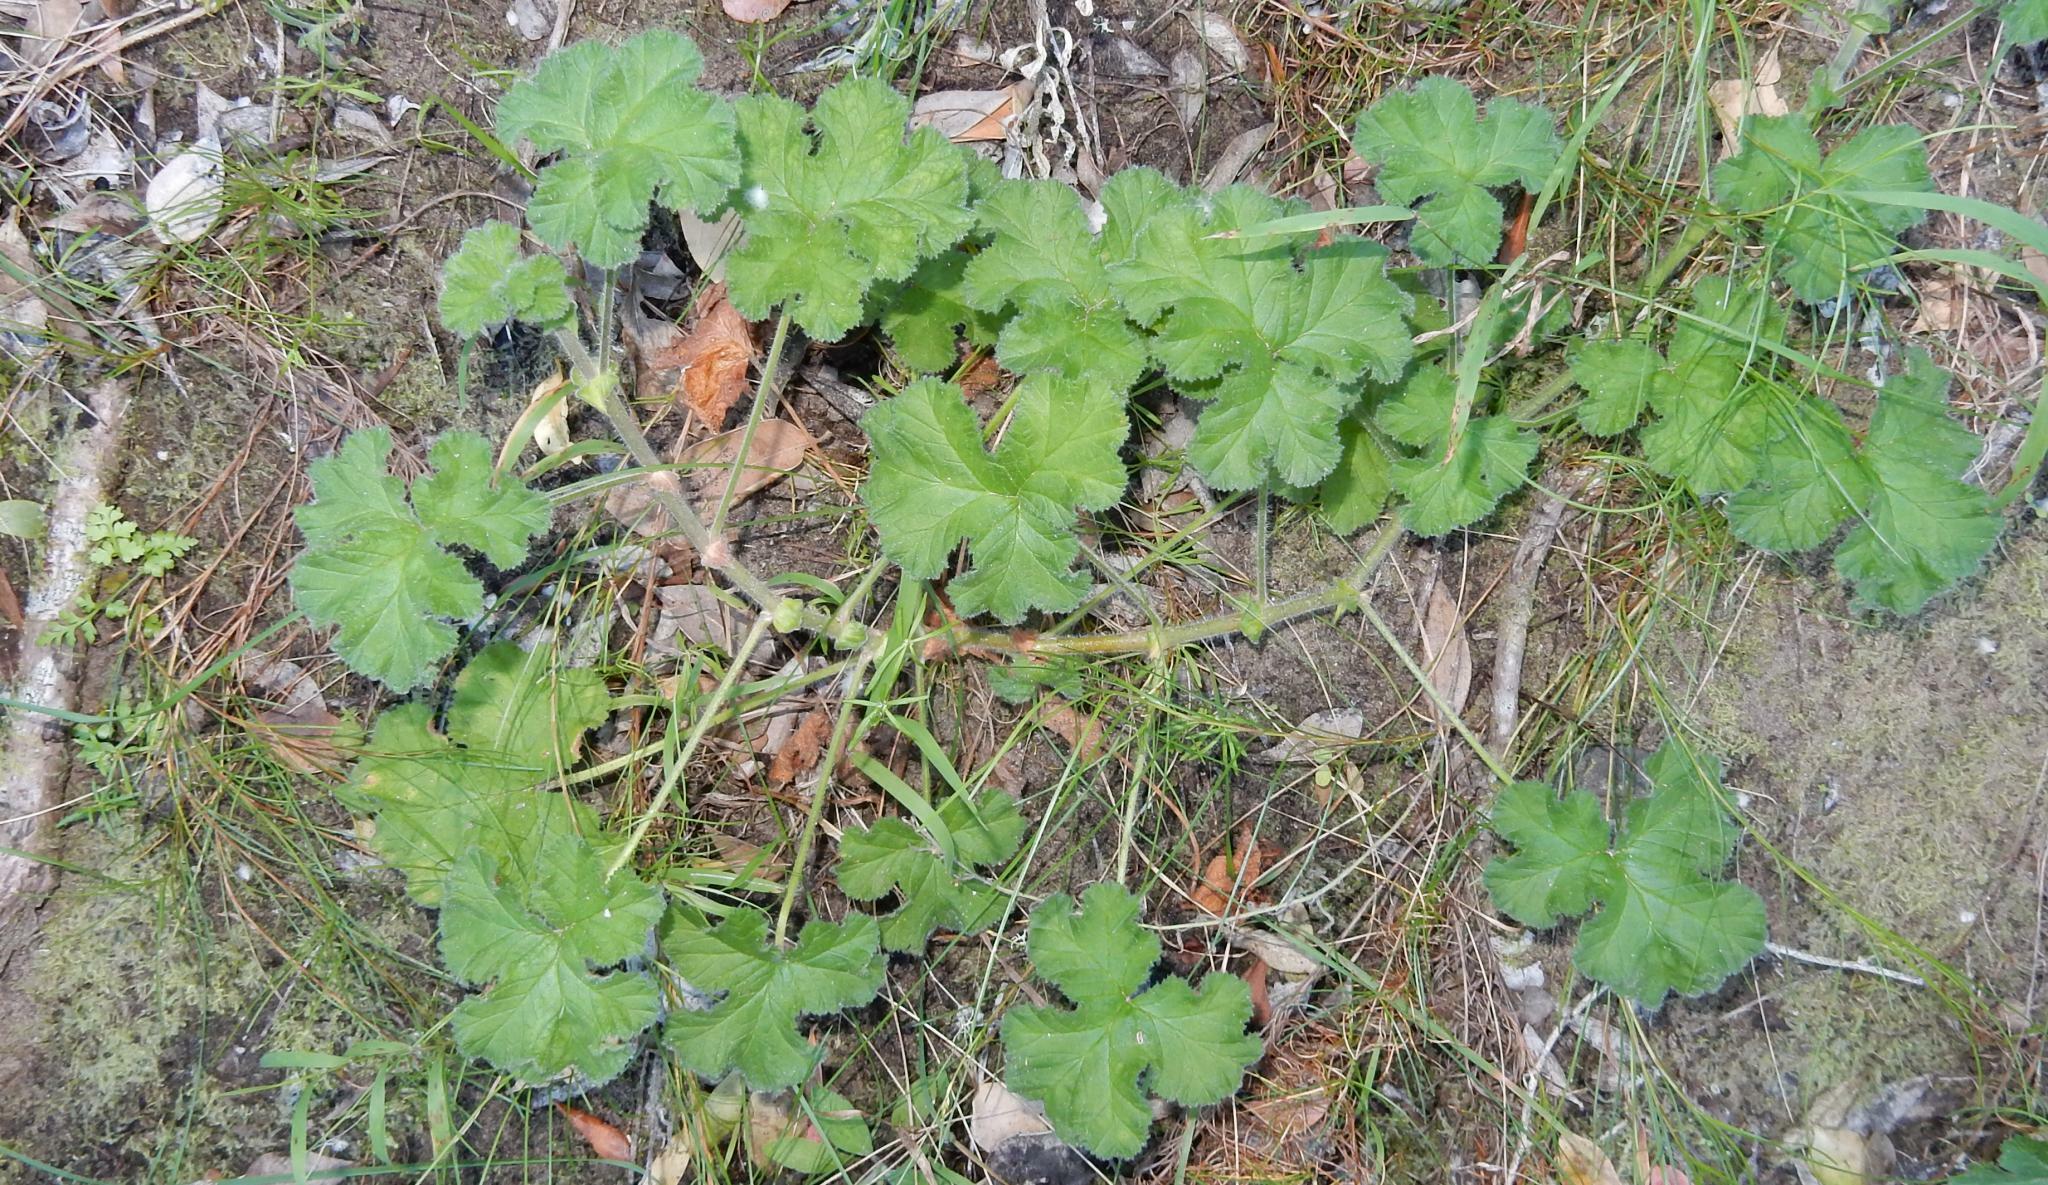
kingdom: Plantae
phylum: Tracheophyta
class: Magnoliopsida
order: Geraniales
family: Geraniaceae
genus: Pelargonium
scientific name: Pelargonium capitatum
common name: Rose scented geranium
